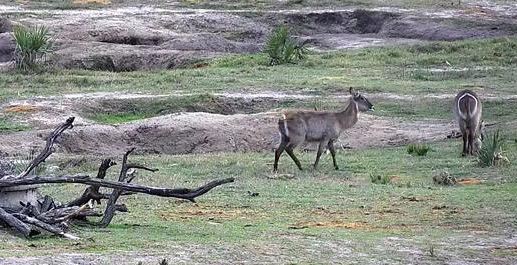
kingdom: Animalia
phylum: Chordata
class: Mammalia
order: Artiodactyla
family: Bovidae
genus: Kobus
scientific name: Kobus ellipsiprymnus
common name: Waterbuck
